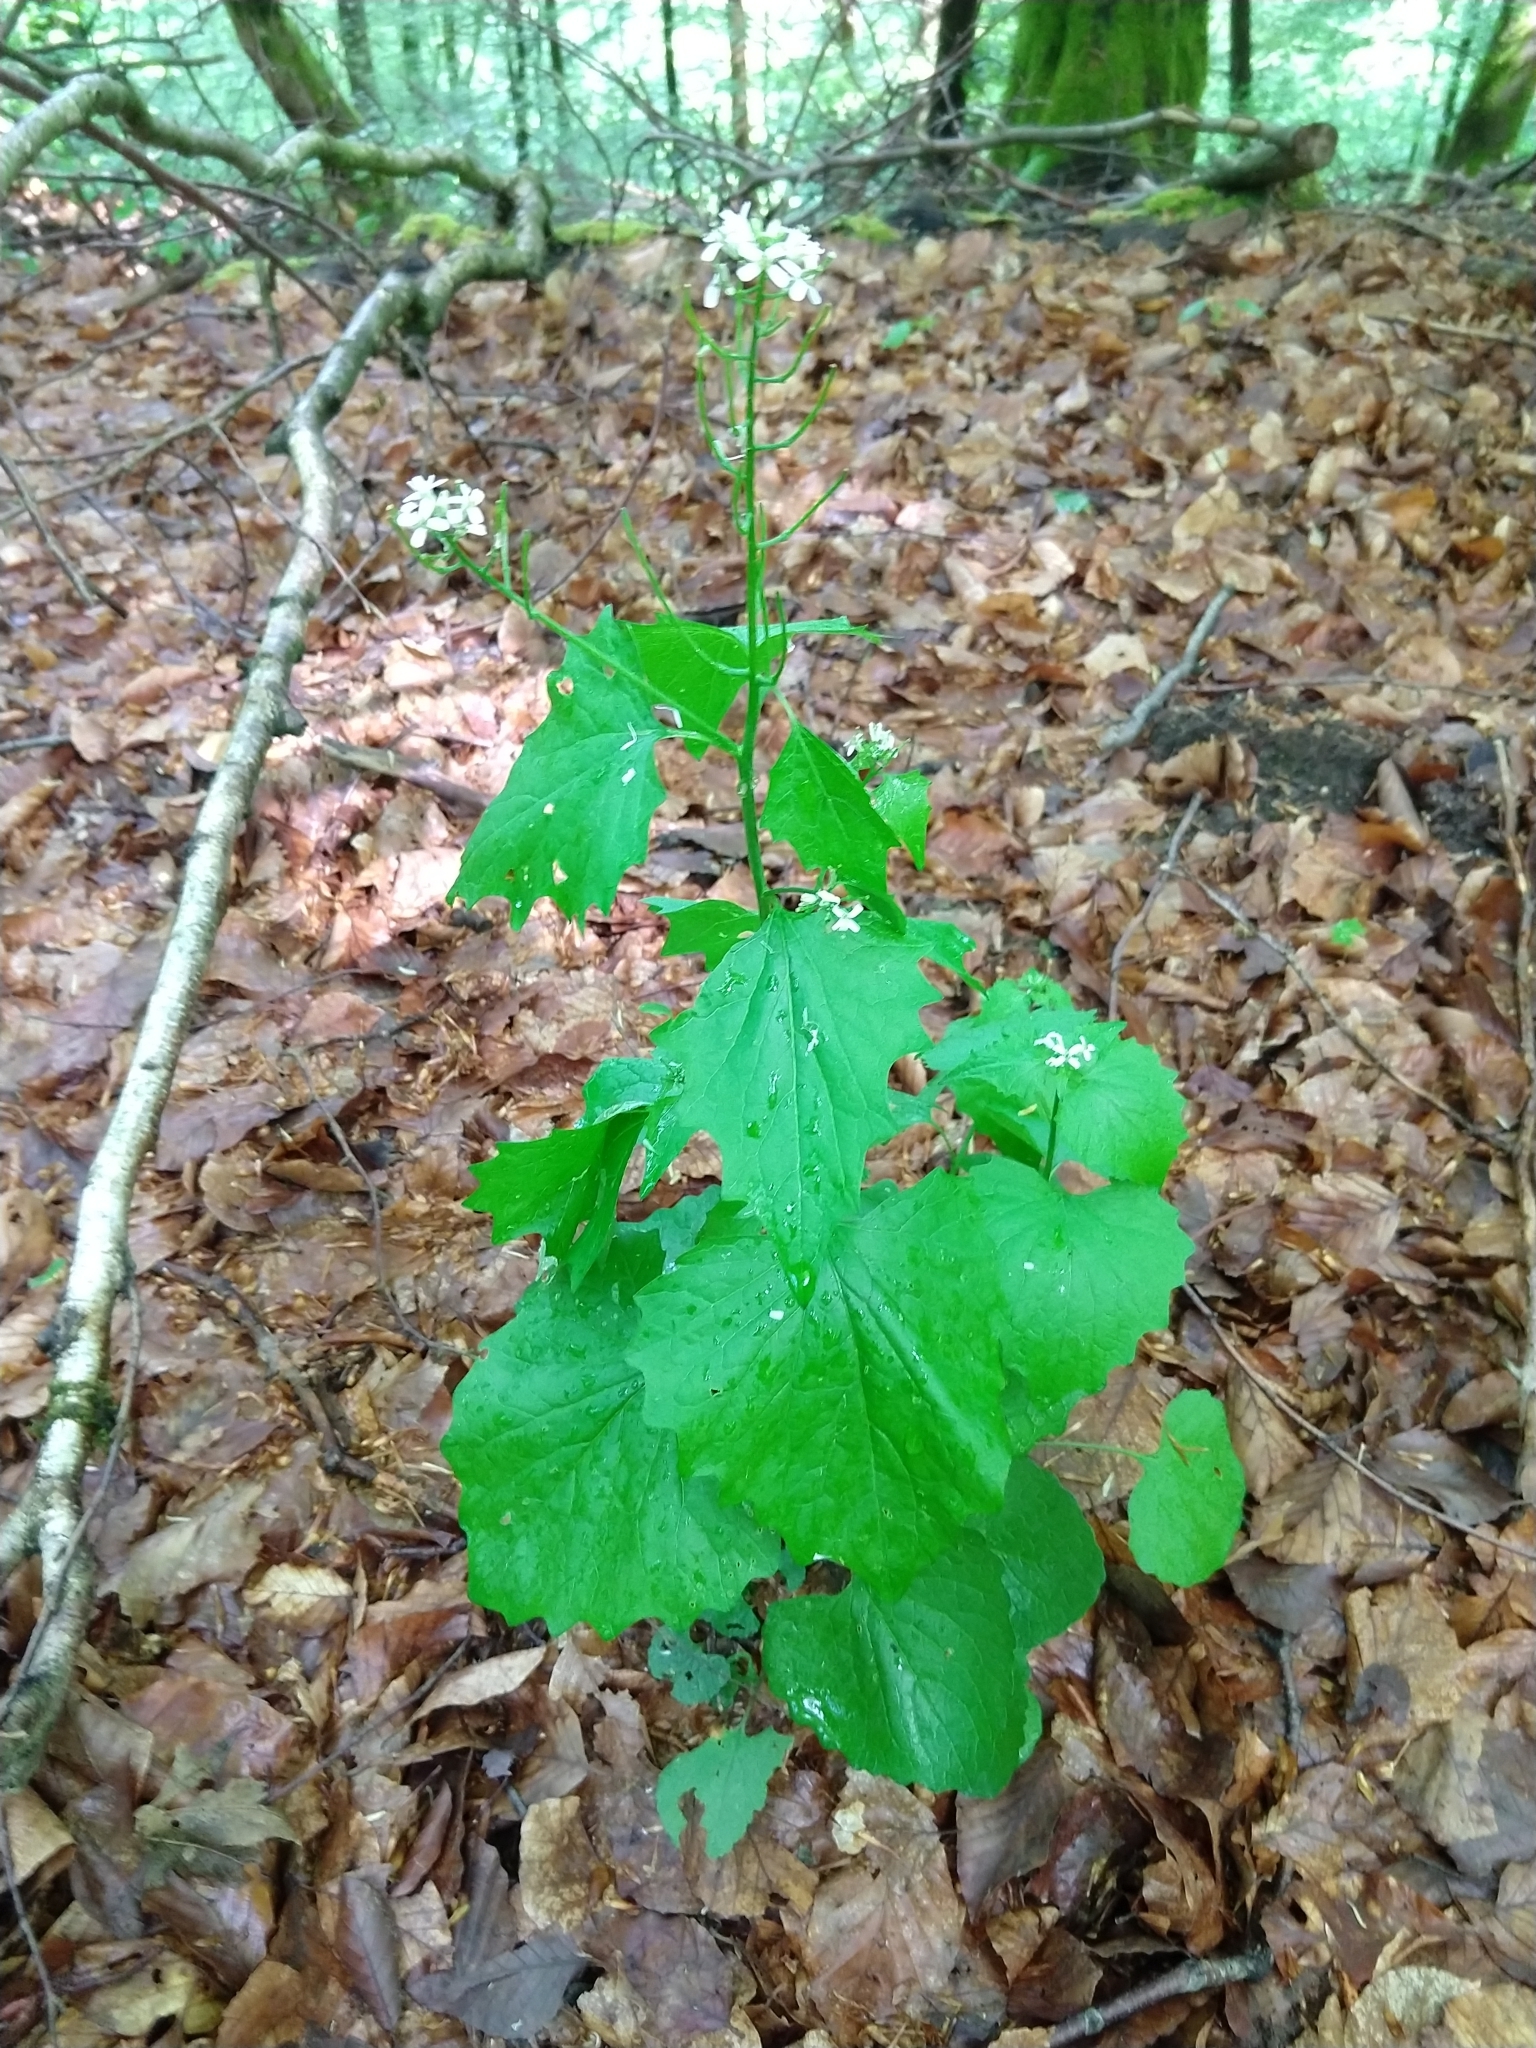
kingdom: Plantae
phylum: Tracheophyta
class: Magnoliopsida
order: Brassicales
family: Brassicaceae
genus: Alliaria
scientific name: Alliaria petiolata
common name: Garlic mustard
